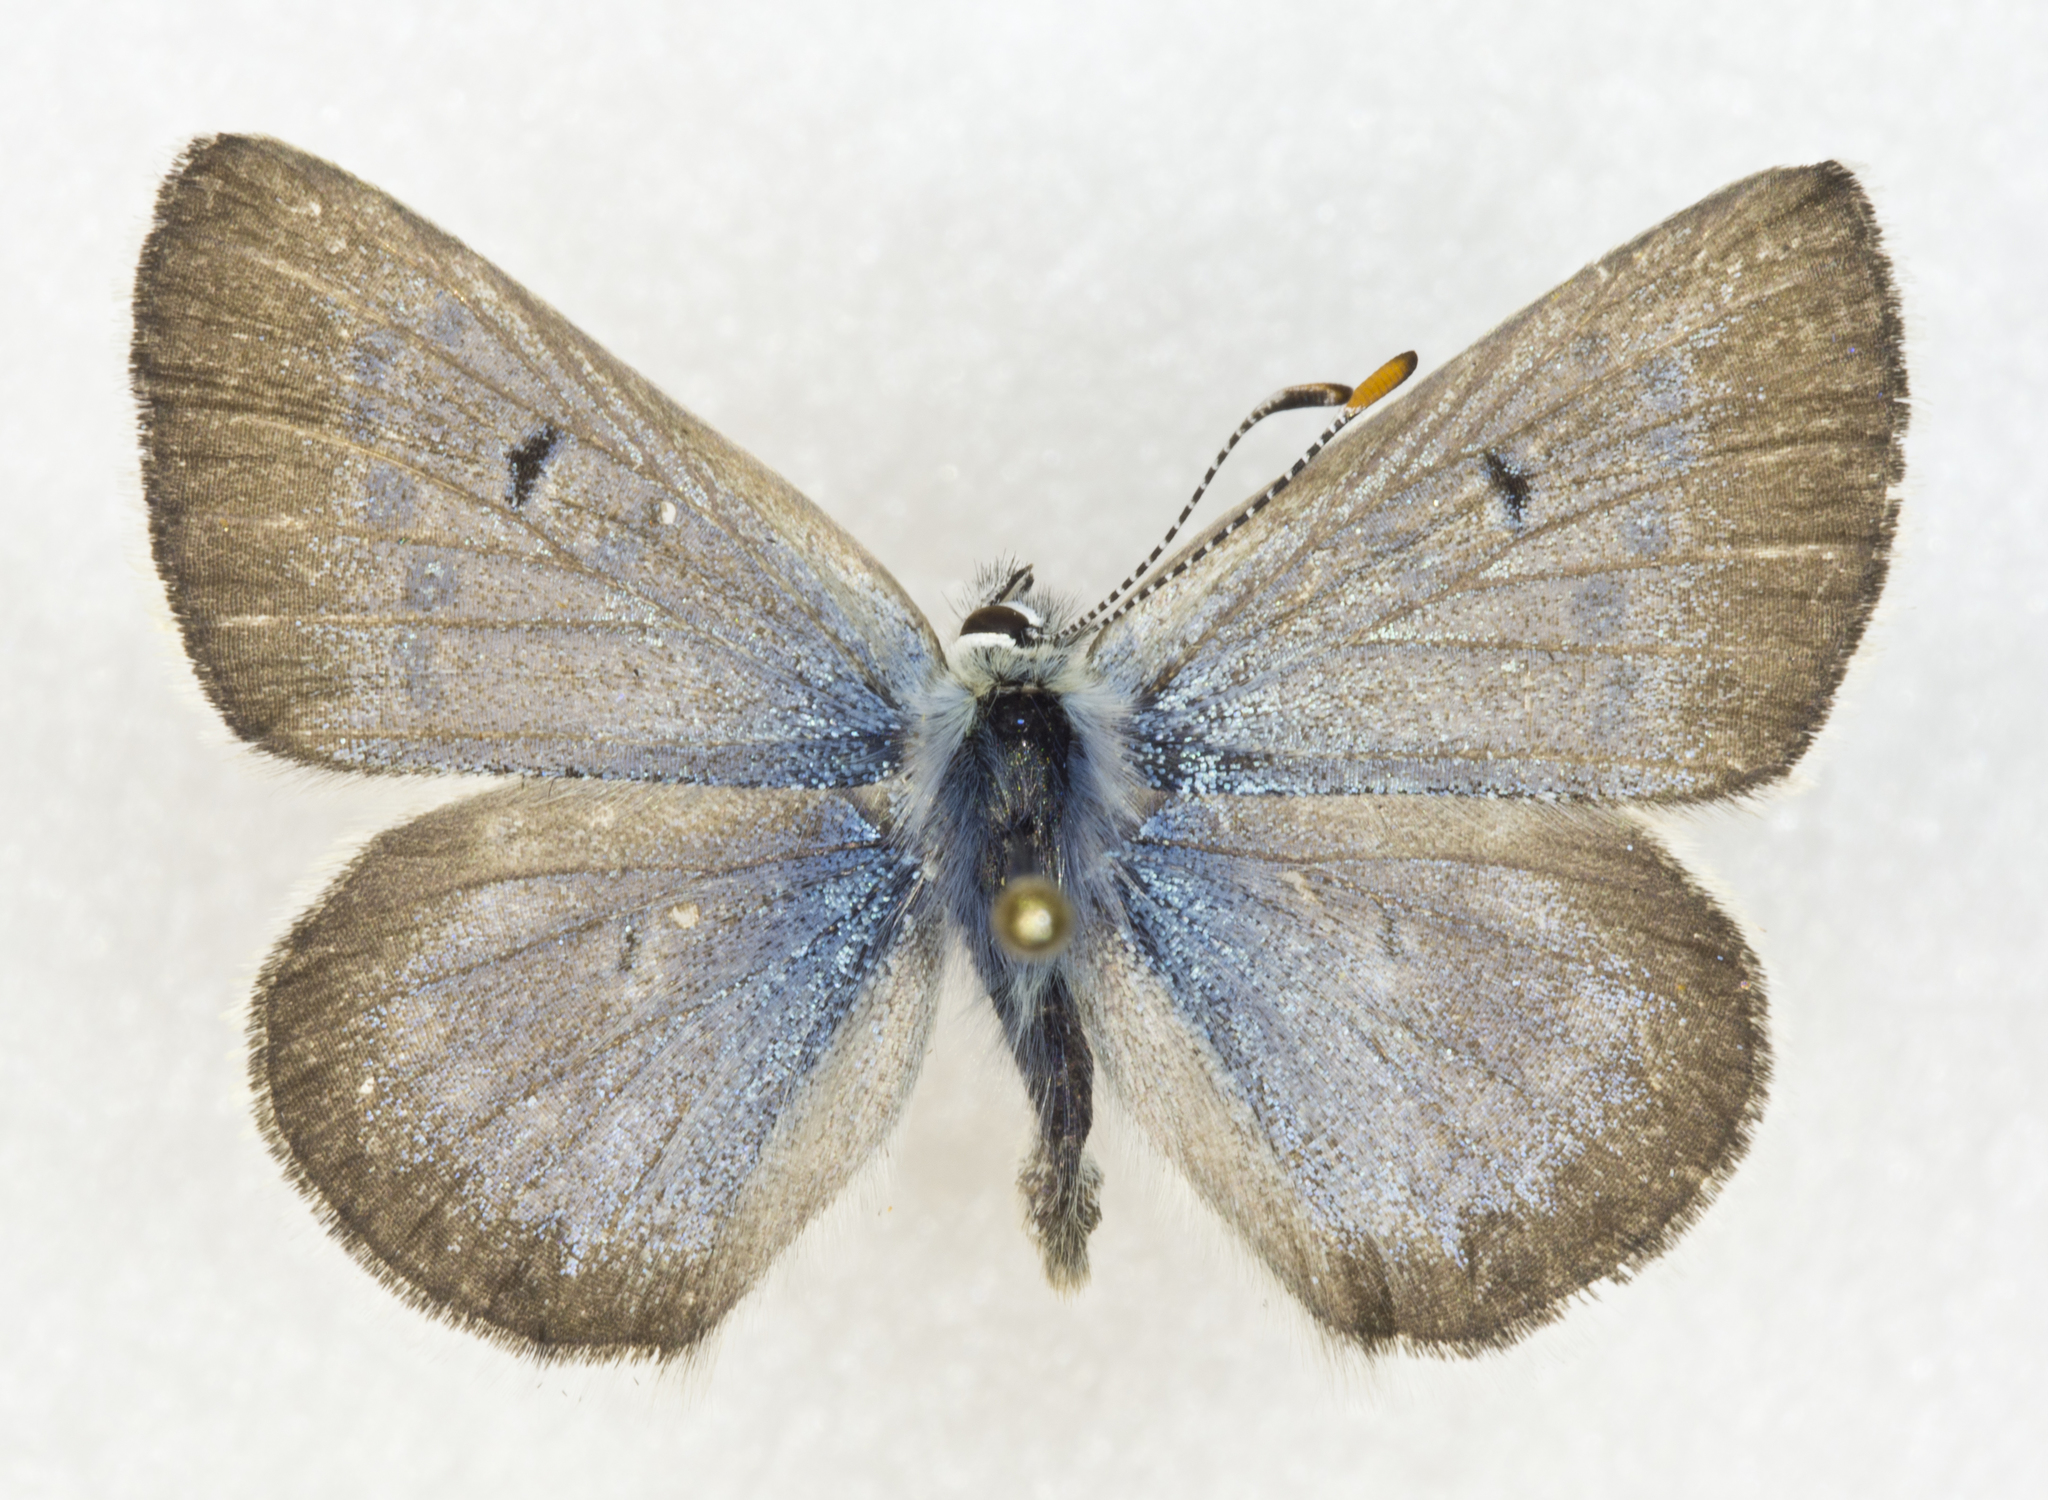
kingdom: Animalia
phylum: Arthropoda
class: Insecta
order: Lepidoptera
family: Lycaenidae
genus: Agriades
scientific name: Agriades glandon
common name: Glandon blue
